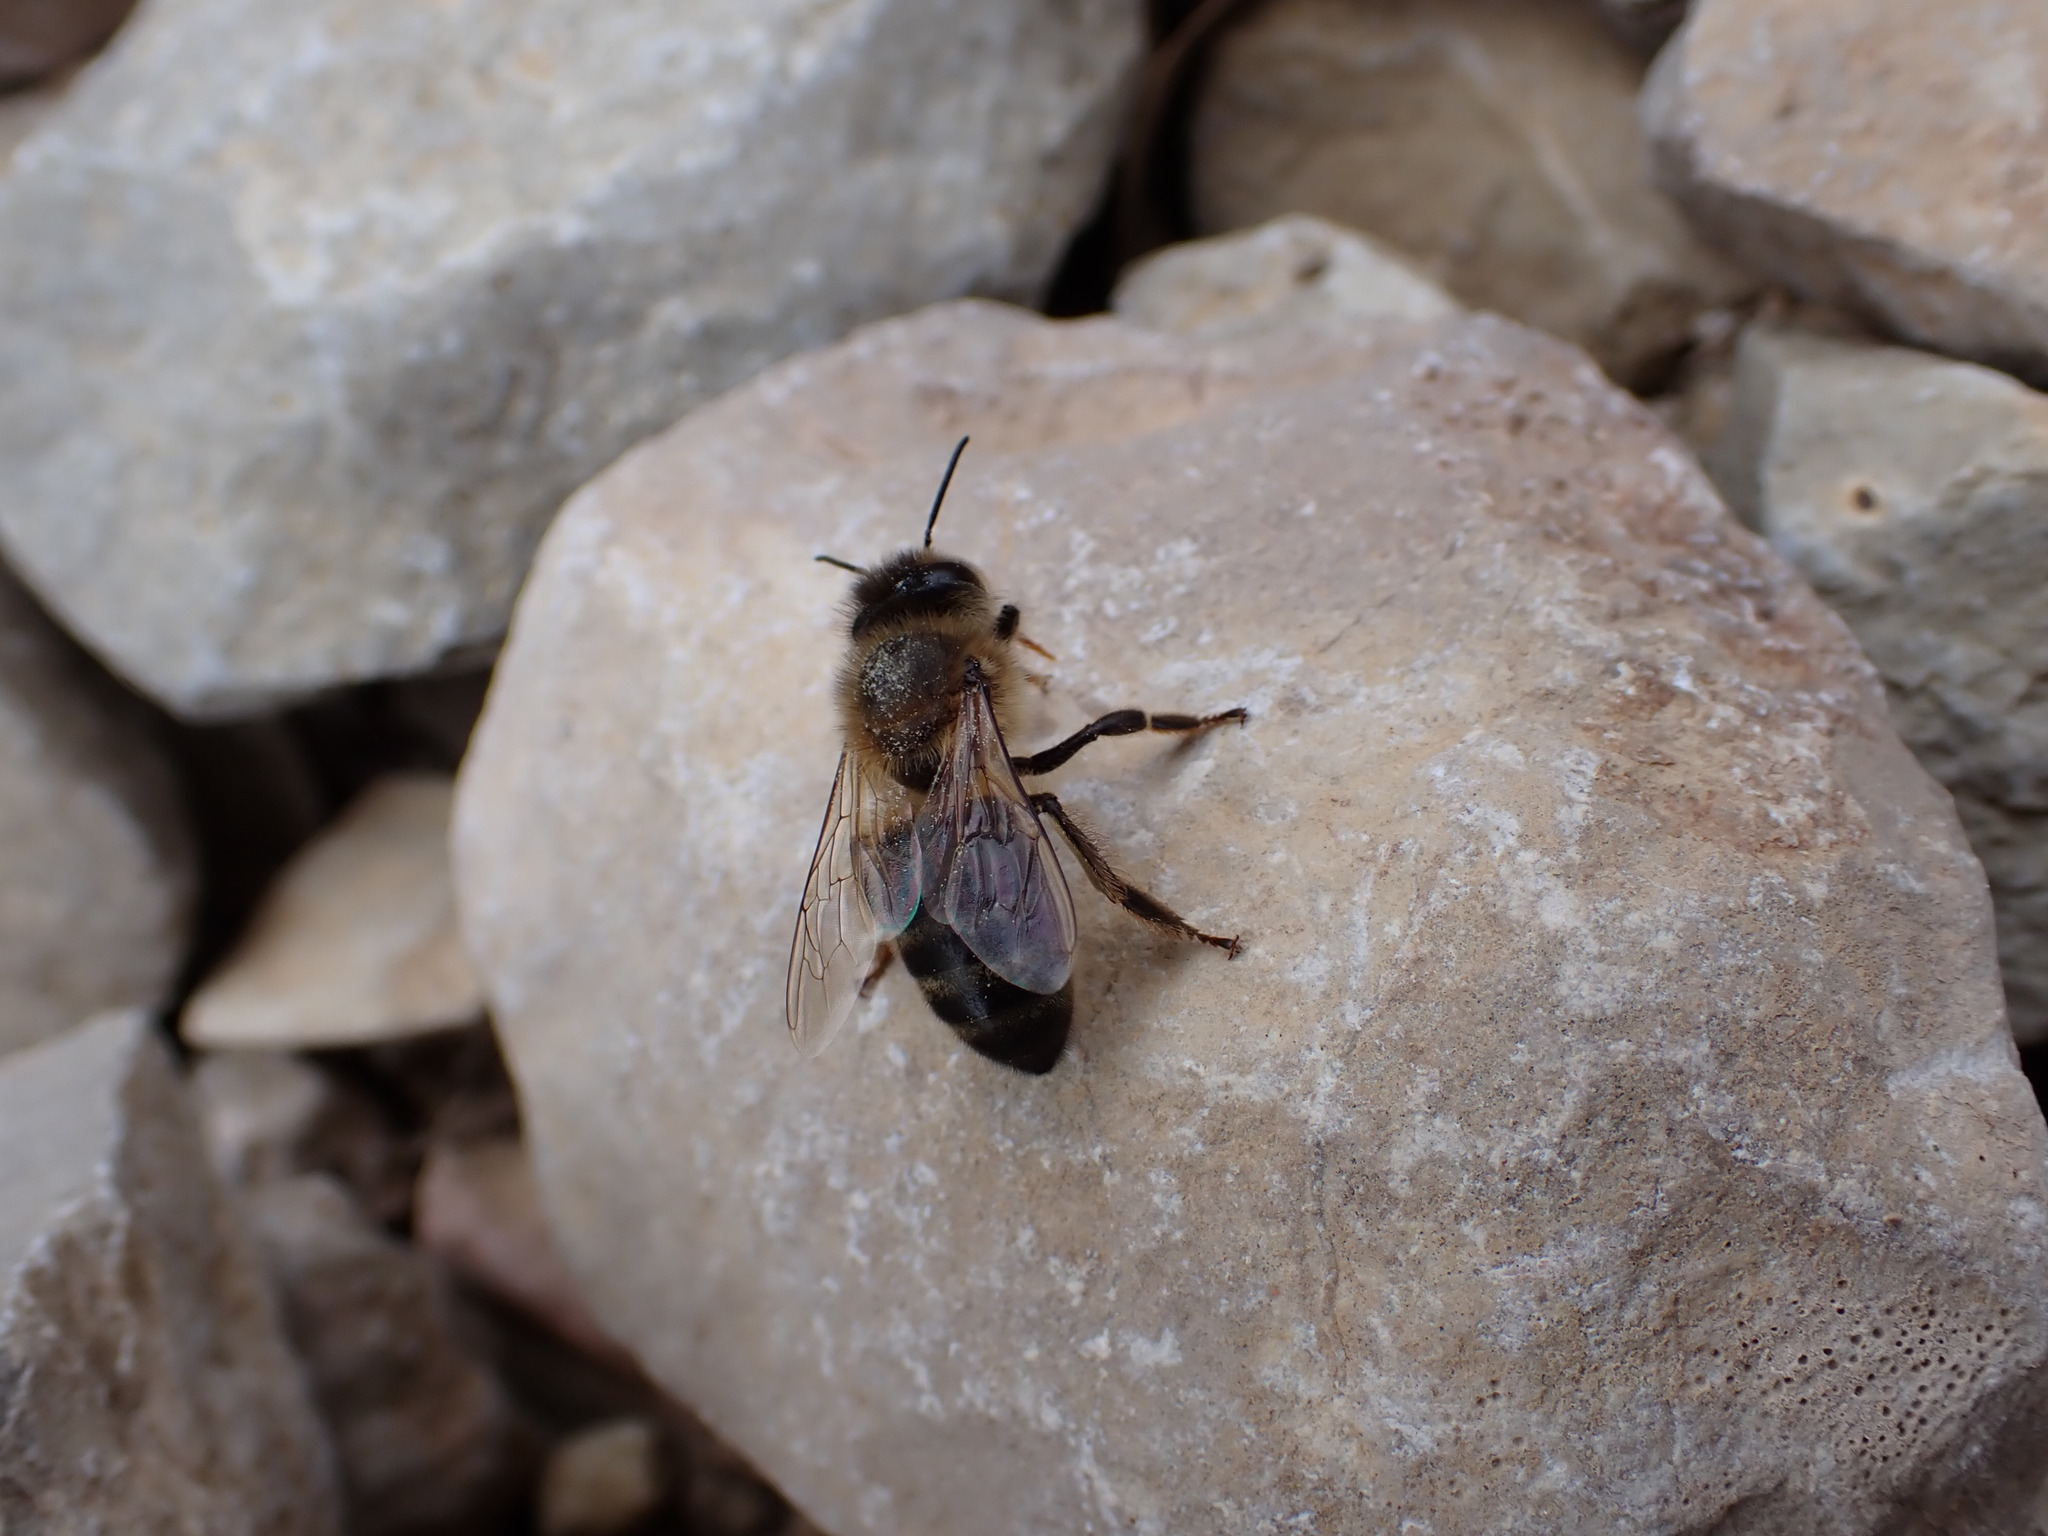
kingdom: Animalia
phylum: Arthropoda
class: Insecta
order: Hymenoptera
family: Apidae
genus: Apis
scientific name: Apis mellifera
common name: Honey bee
